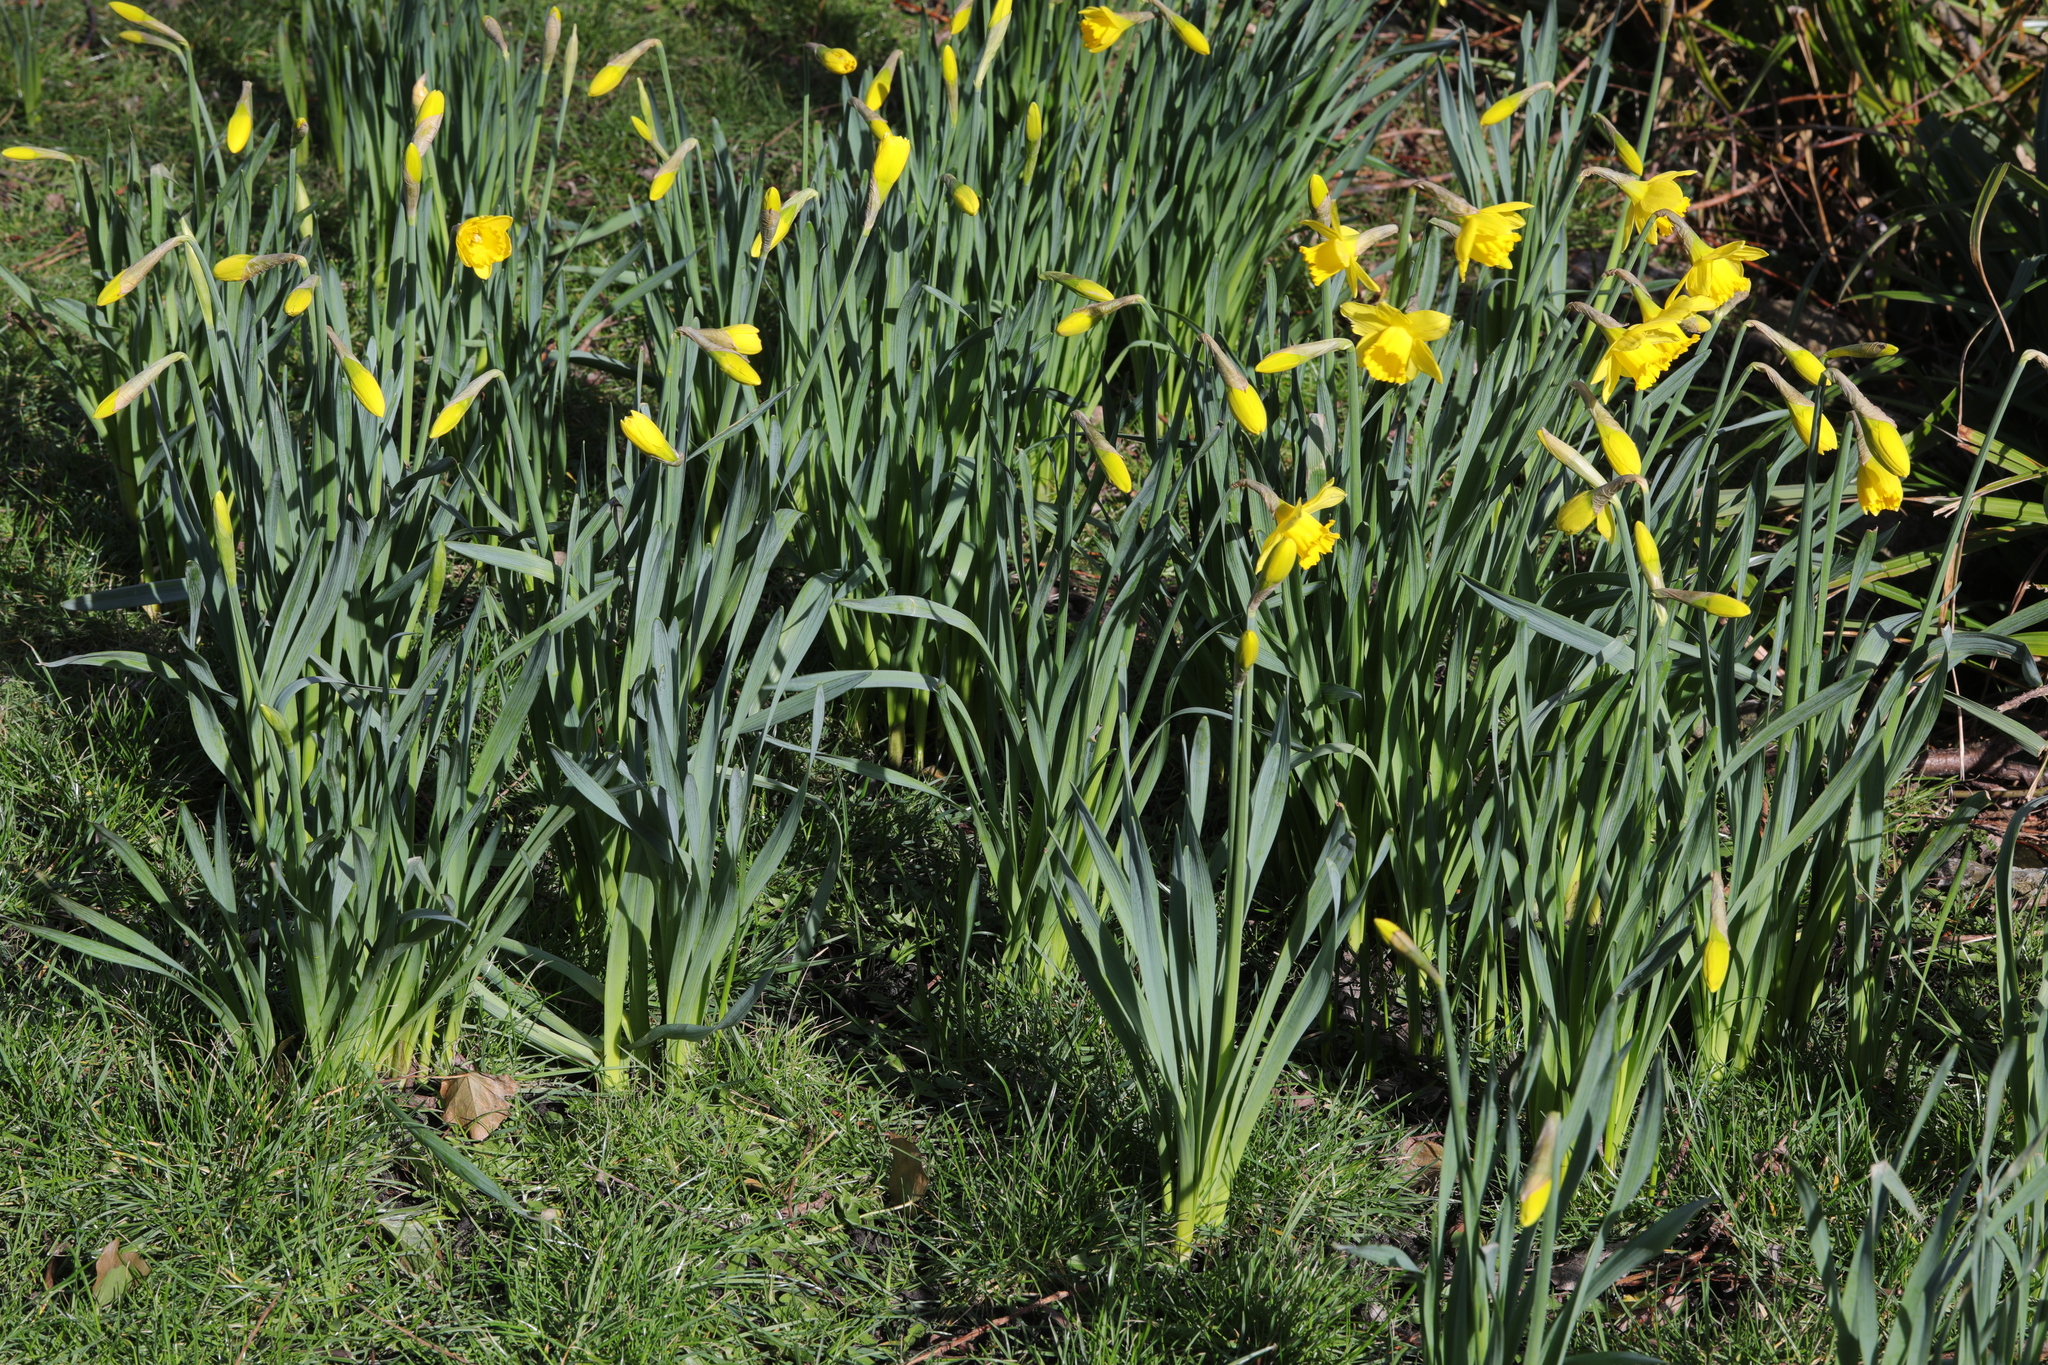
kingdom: Plantae
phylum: Tracheophyta
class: Liliopsida
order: Asparagales
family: Amaryllidaceae
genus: Narcissus
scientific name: Narcissus
